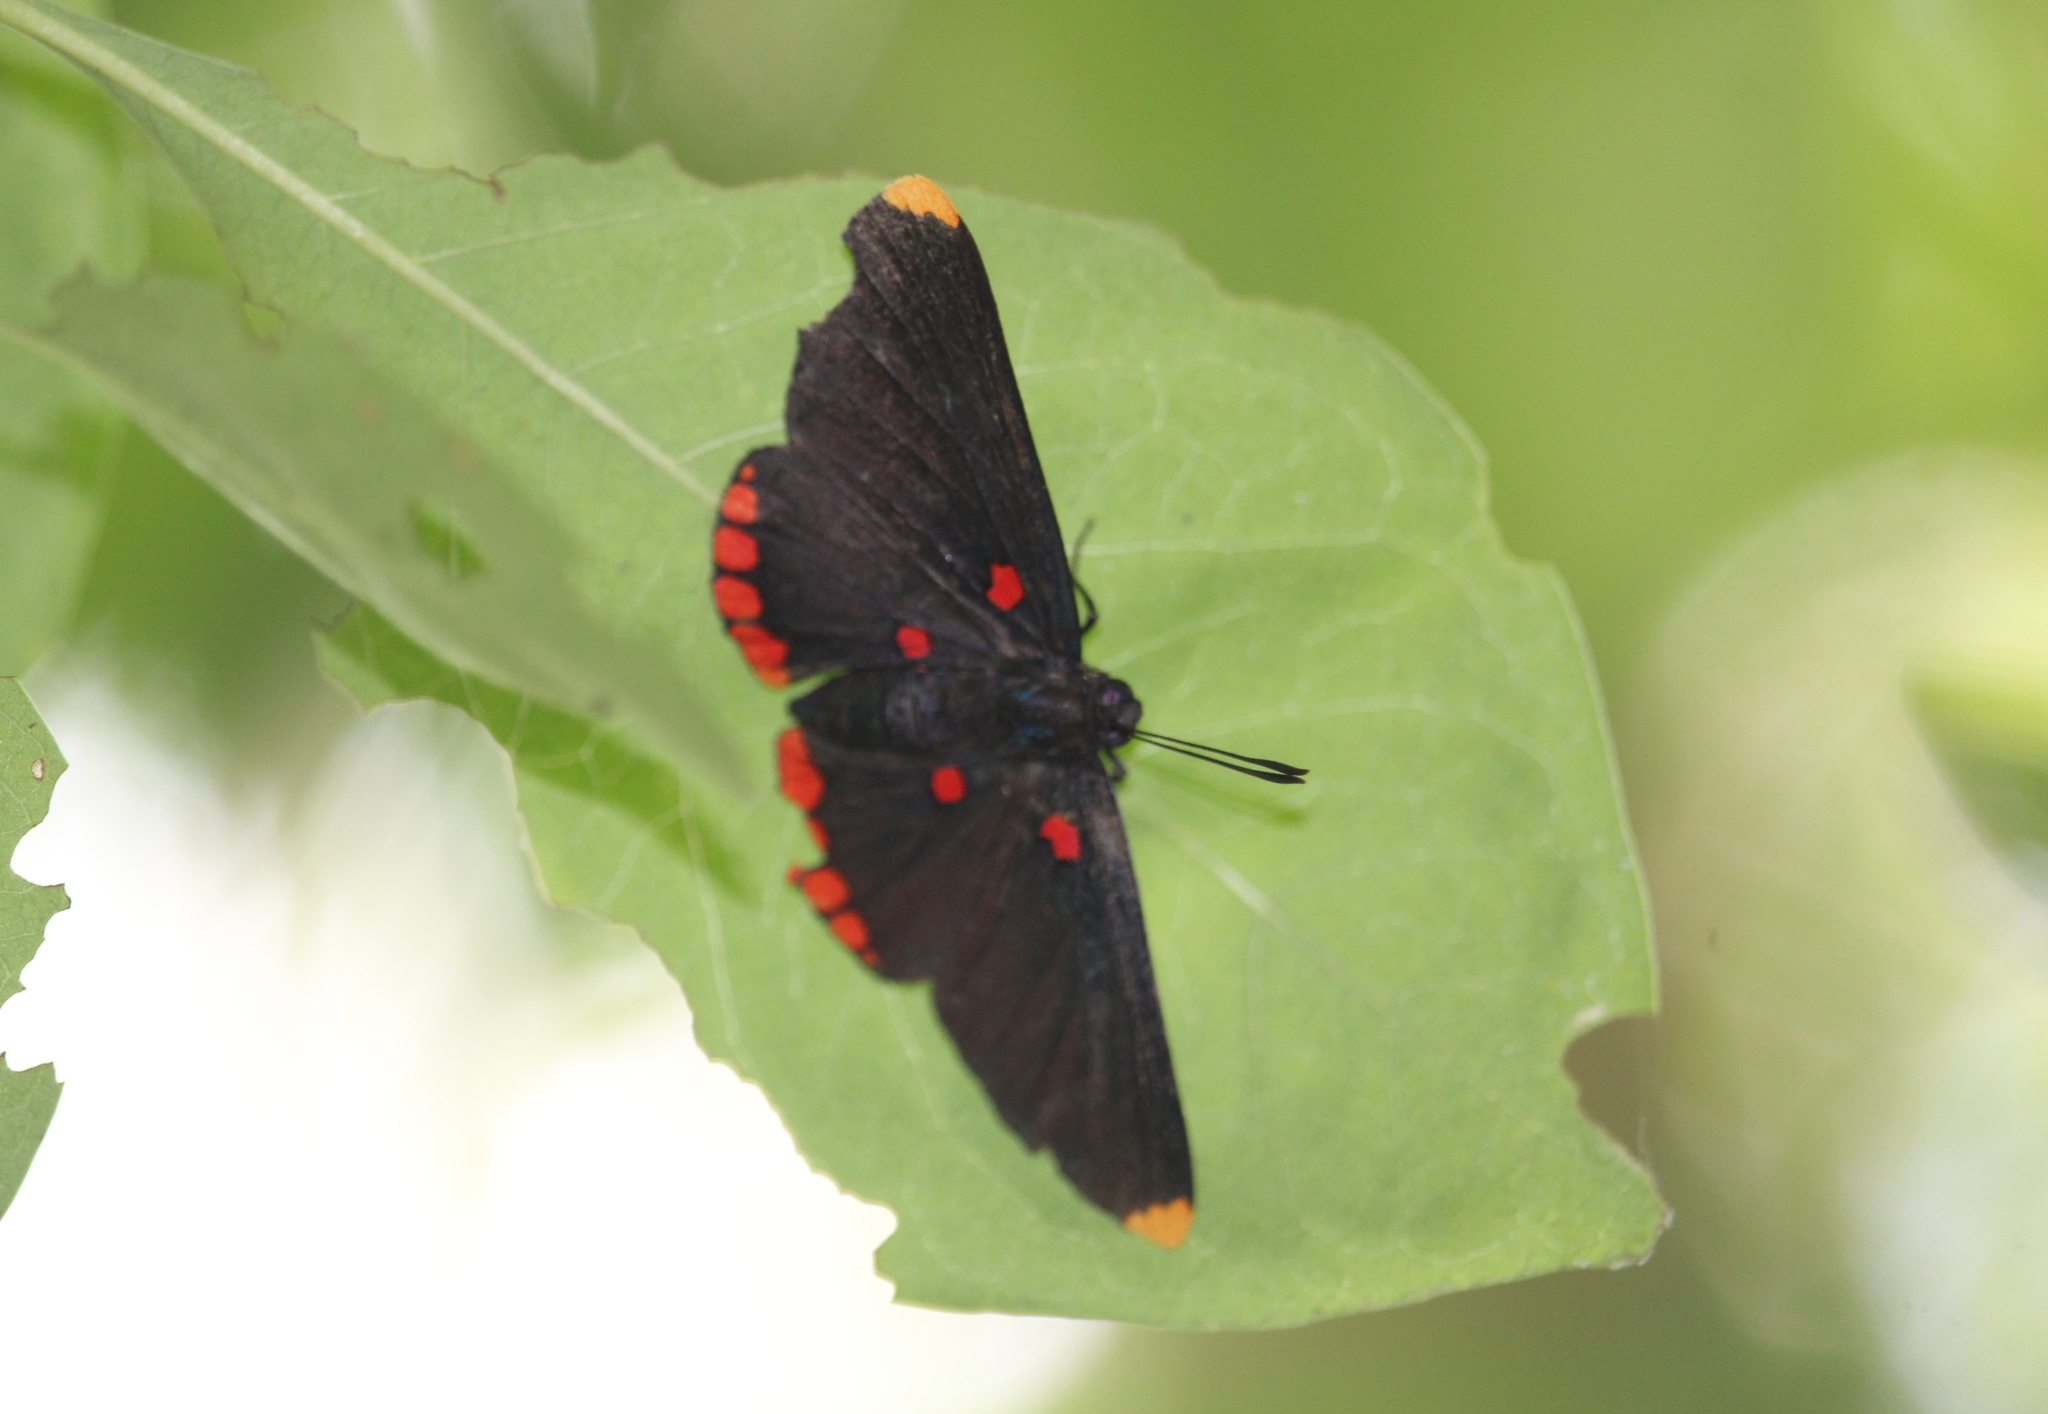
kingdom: Animalia
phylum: Arthropoda
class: Insecta
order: Lepidoptera
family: Lycaenidae
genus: Melanis
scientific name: Melanis pixe
